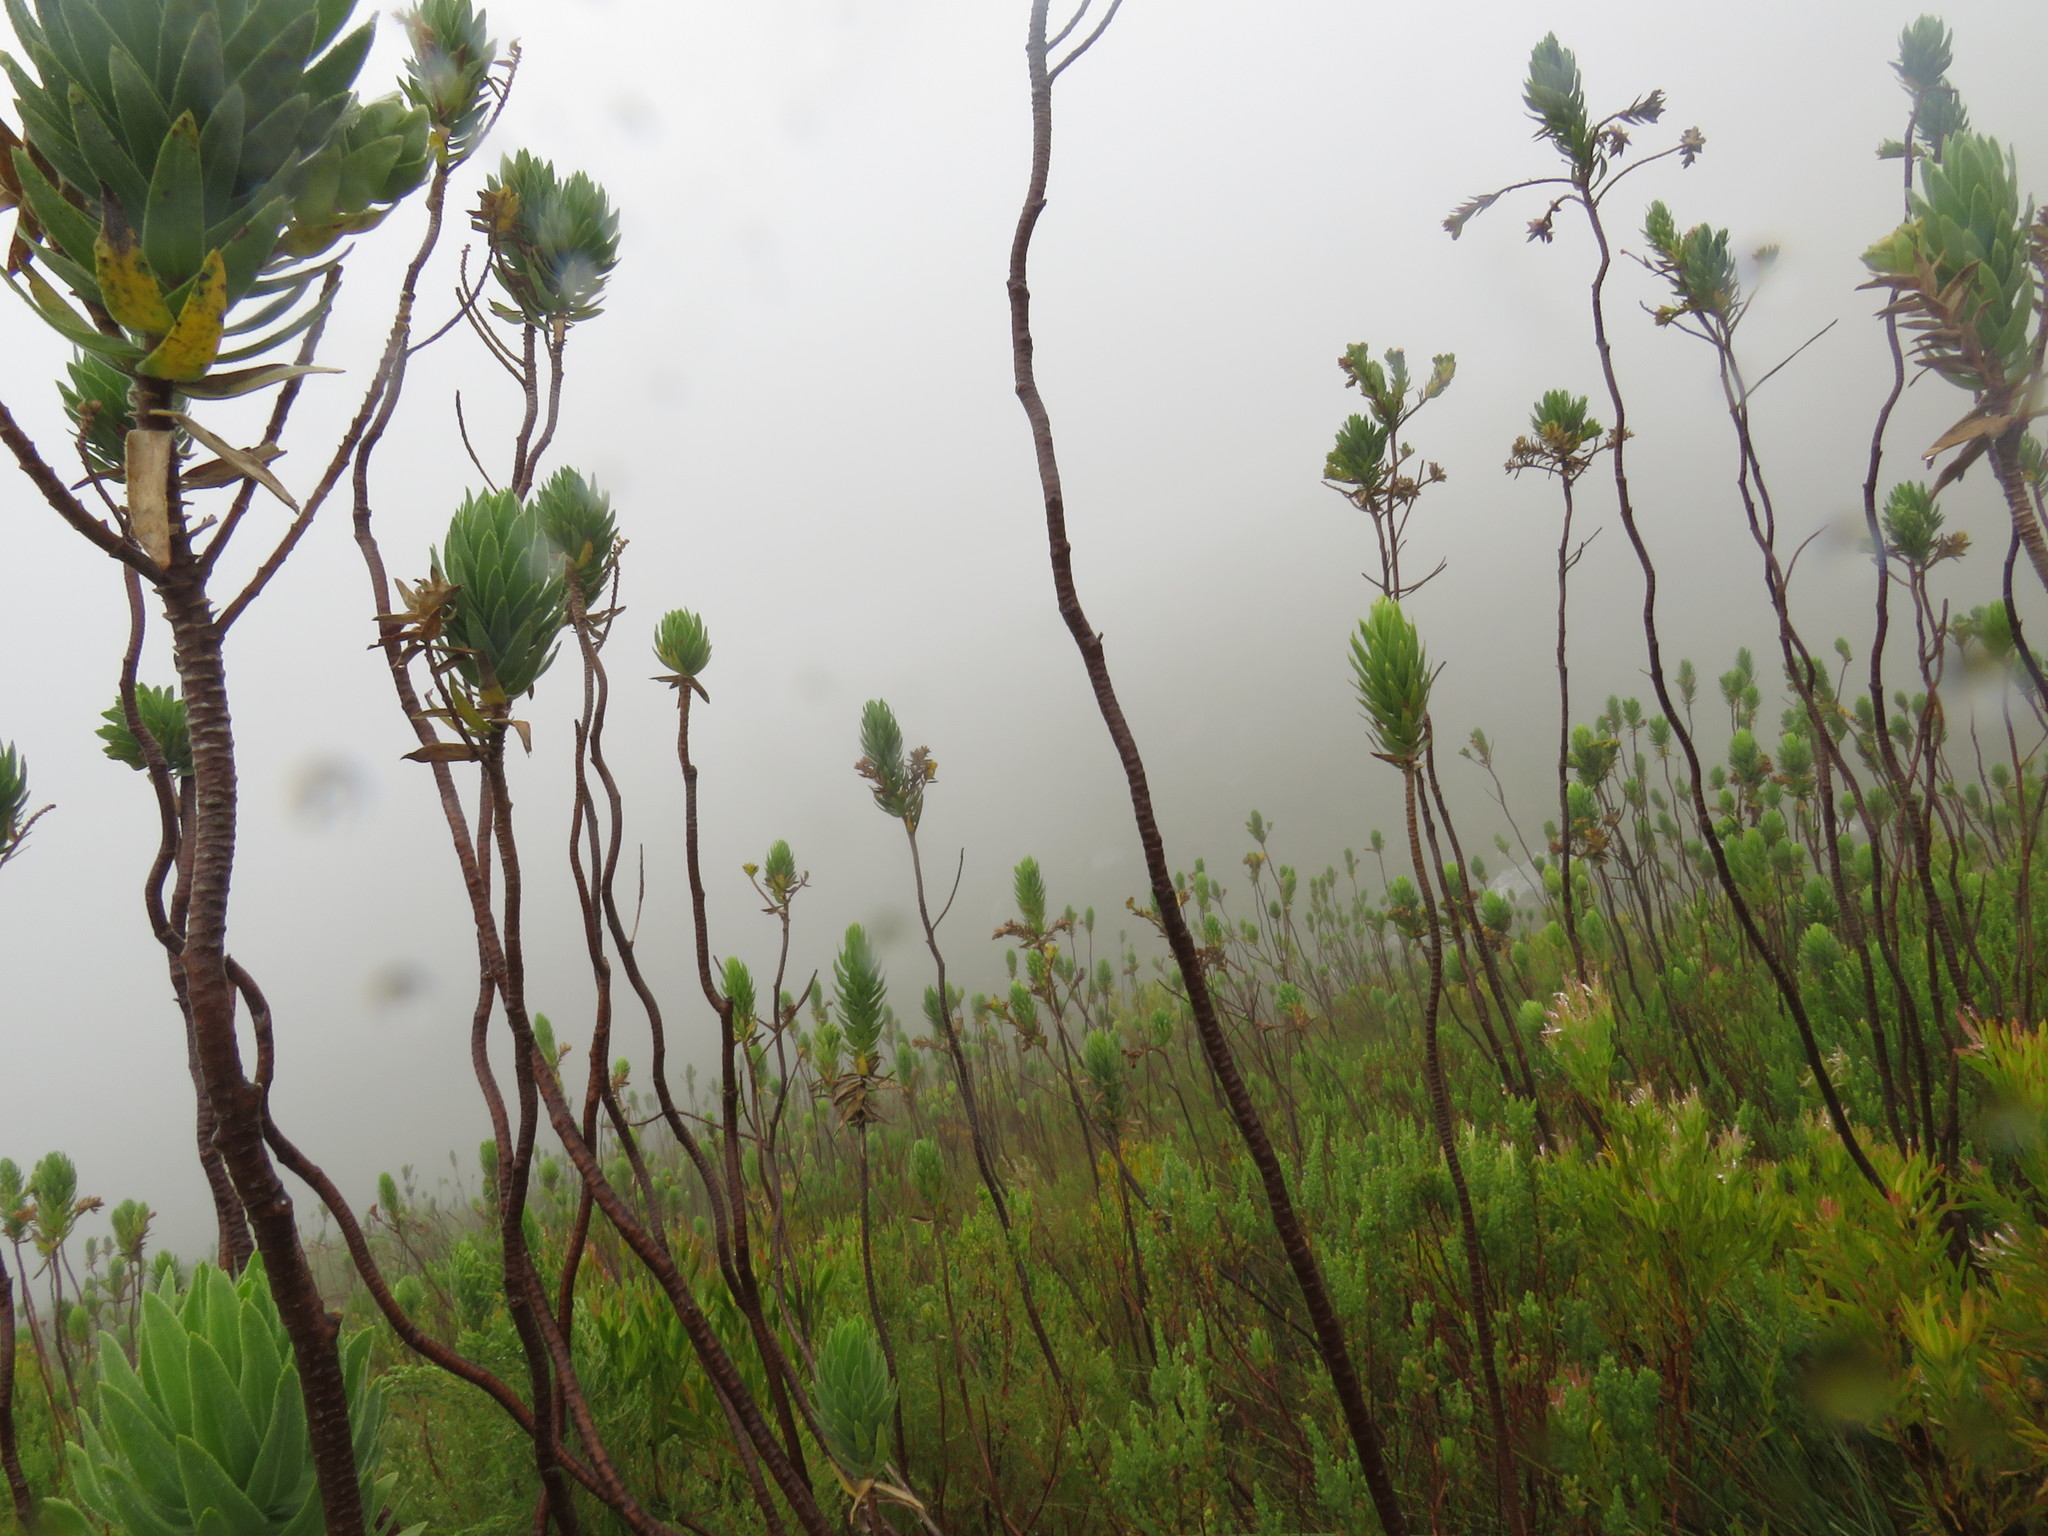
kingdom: Plantae
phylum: Tracheophyta
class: Magnoliopsida
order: Asterales
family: Asteraceae
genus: Osmitopsis
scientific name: Osmitopsis asteriscoides
